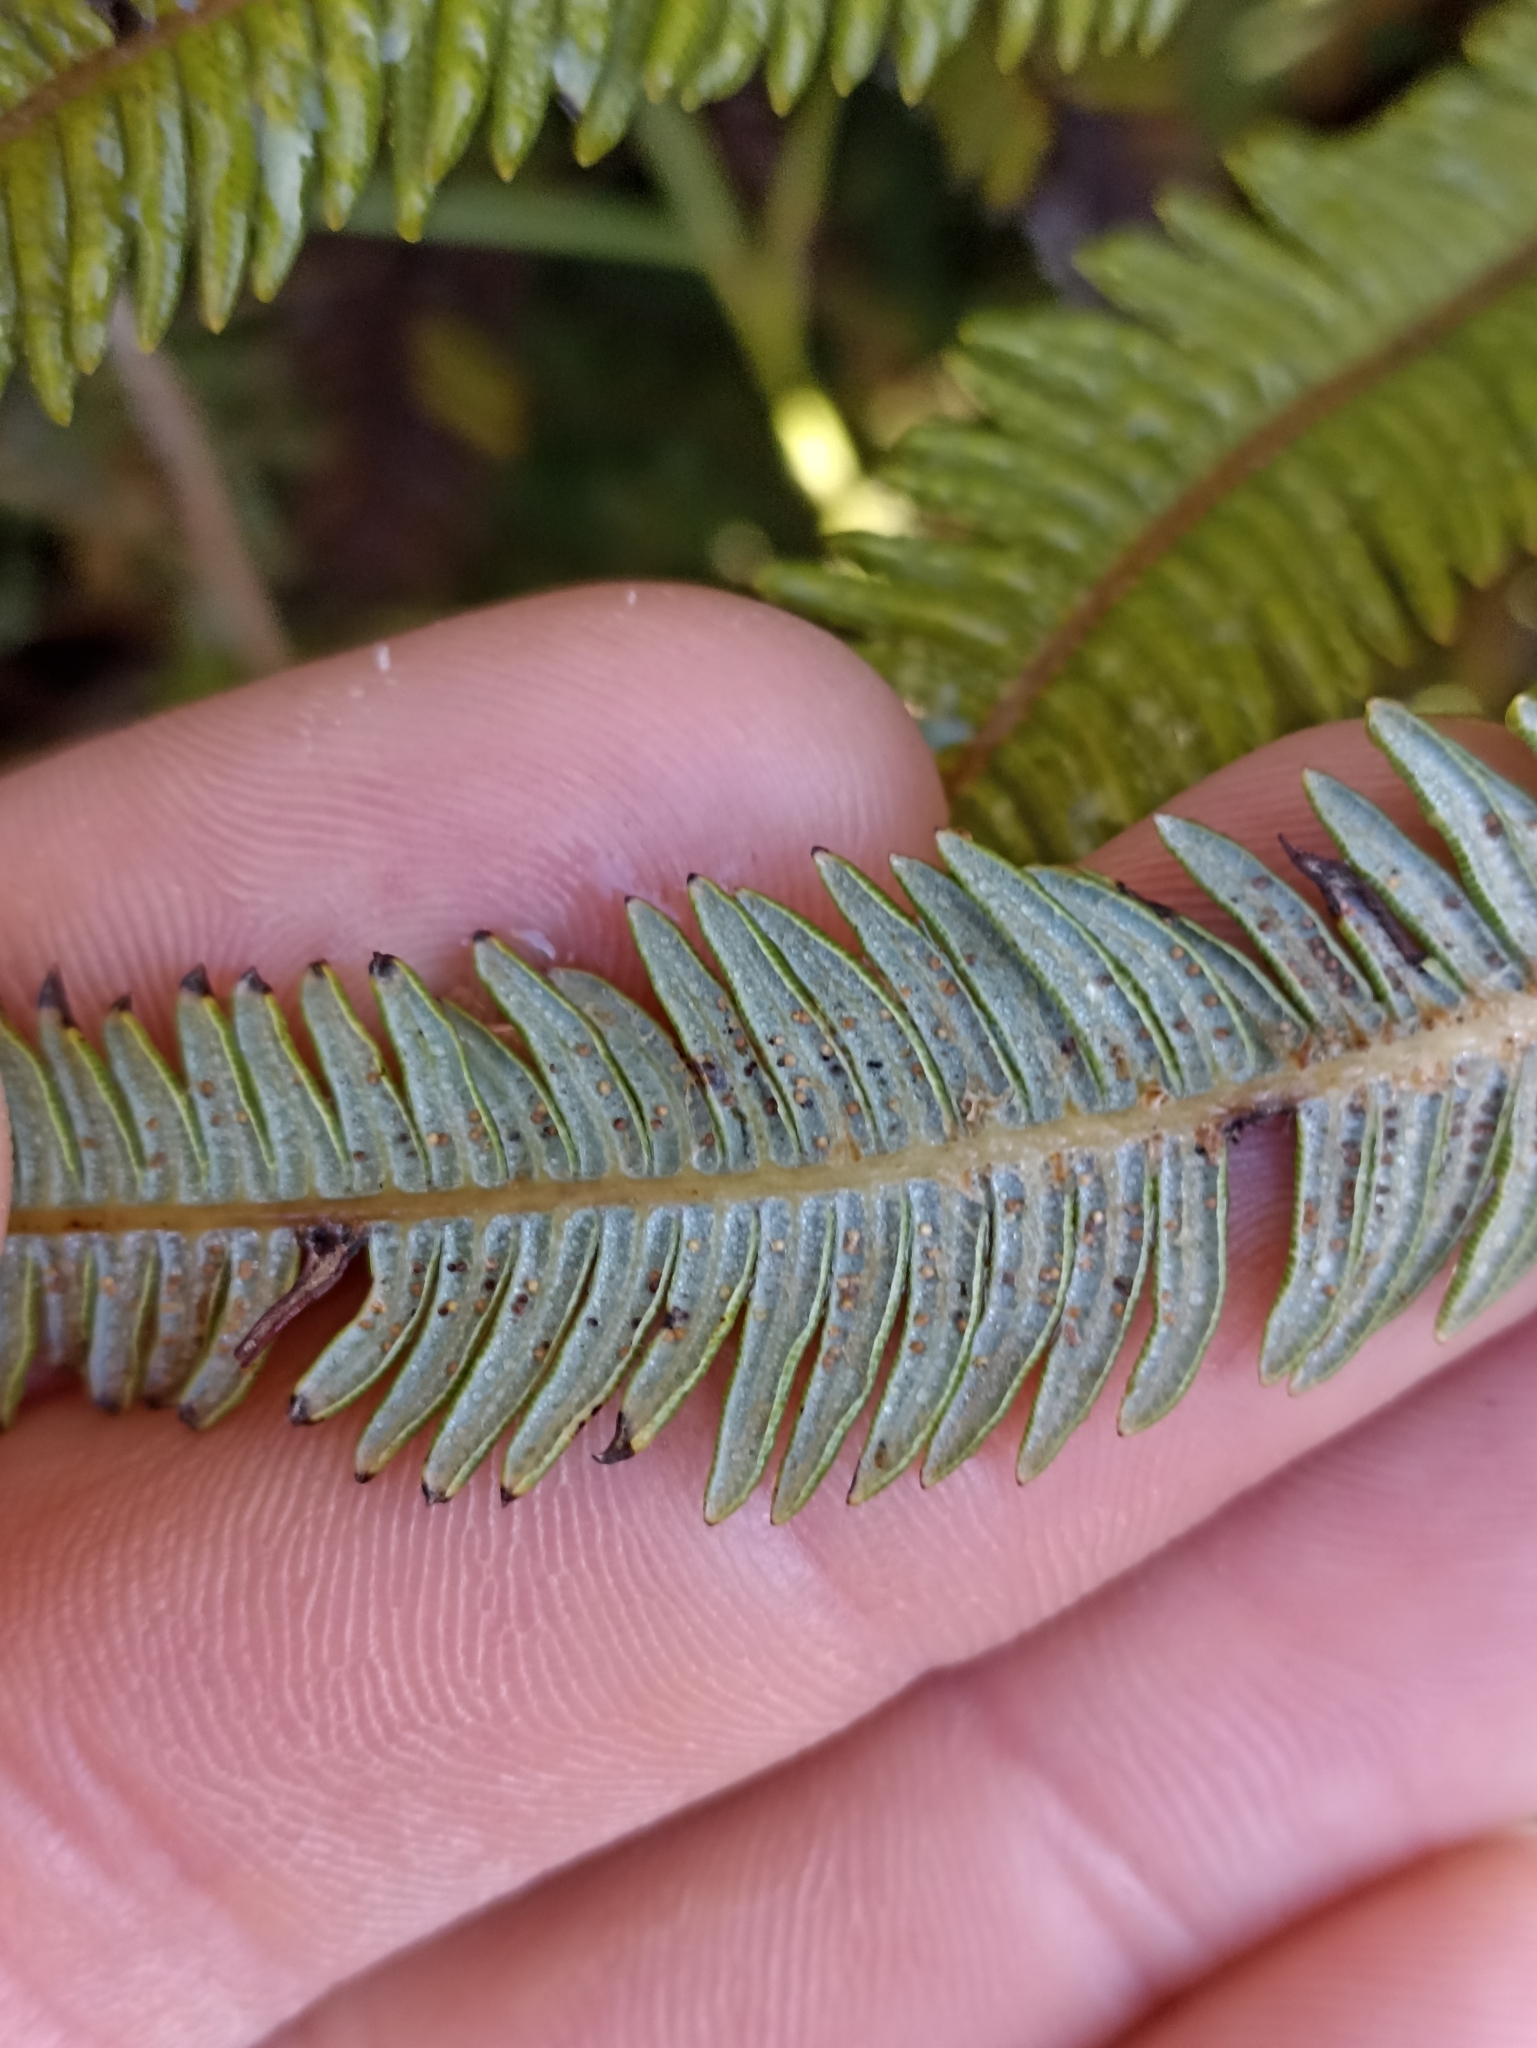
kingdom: Plantae
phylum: Tracheophyta
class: Polypodiopsida
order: Gleicheniales
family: Gleicheniaceae
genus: Sticherus
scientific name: Sticherus cunninghamii
